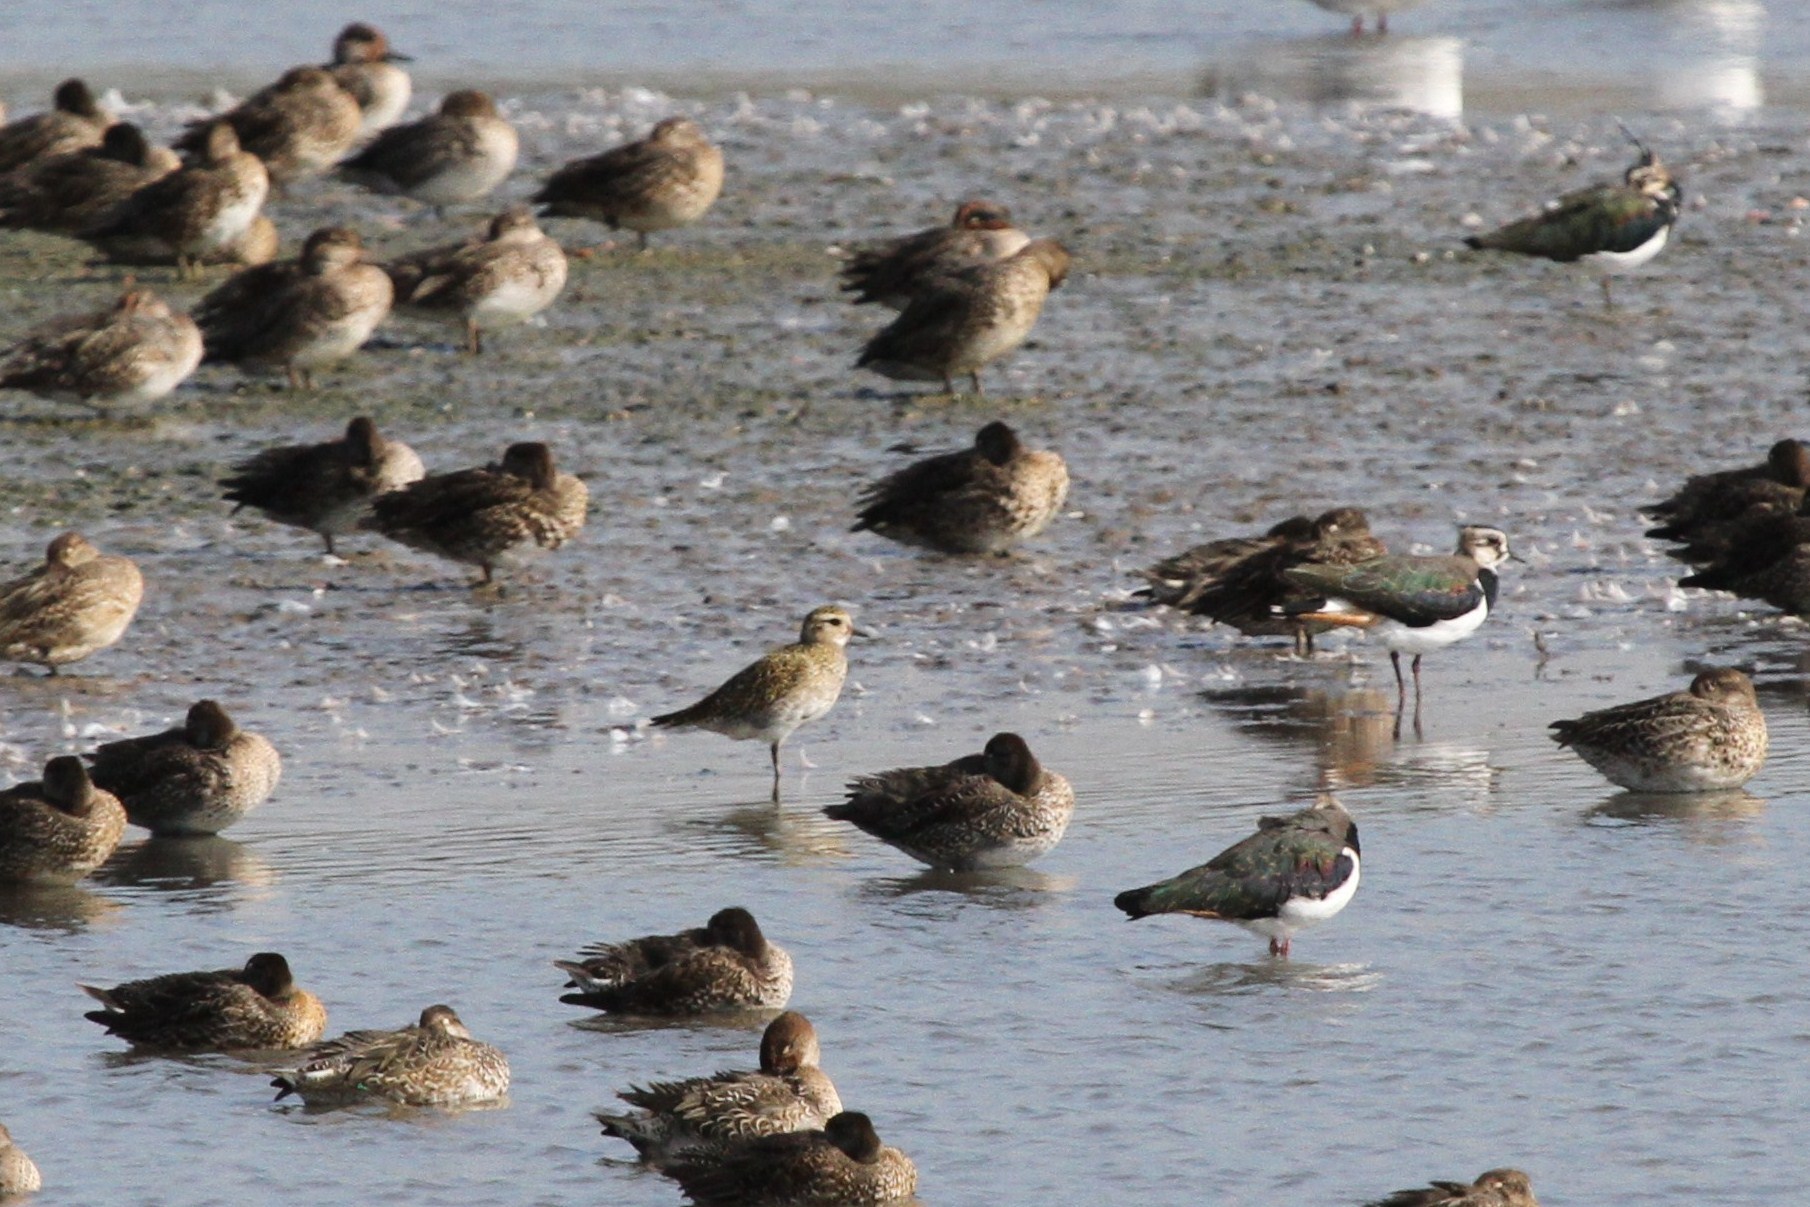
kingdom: Animalia
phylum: Chordata
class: Aves
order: Charadriiformes
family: Charadriidae
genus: Pluvialis
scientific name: Pluvialis apricaria
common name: European golden plover
